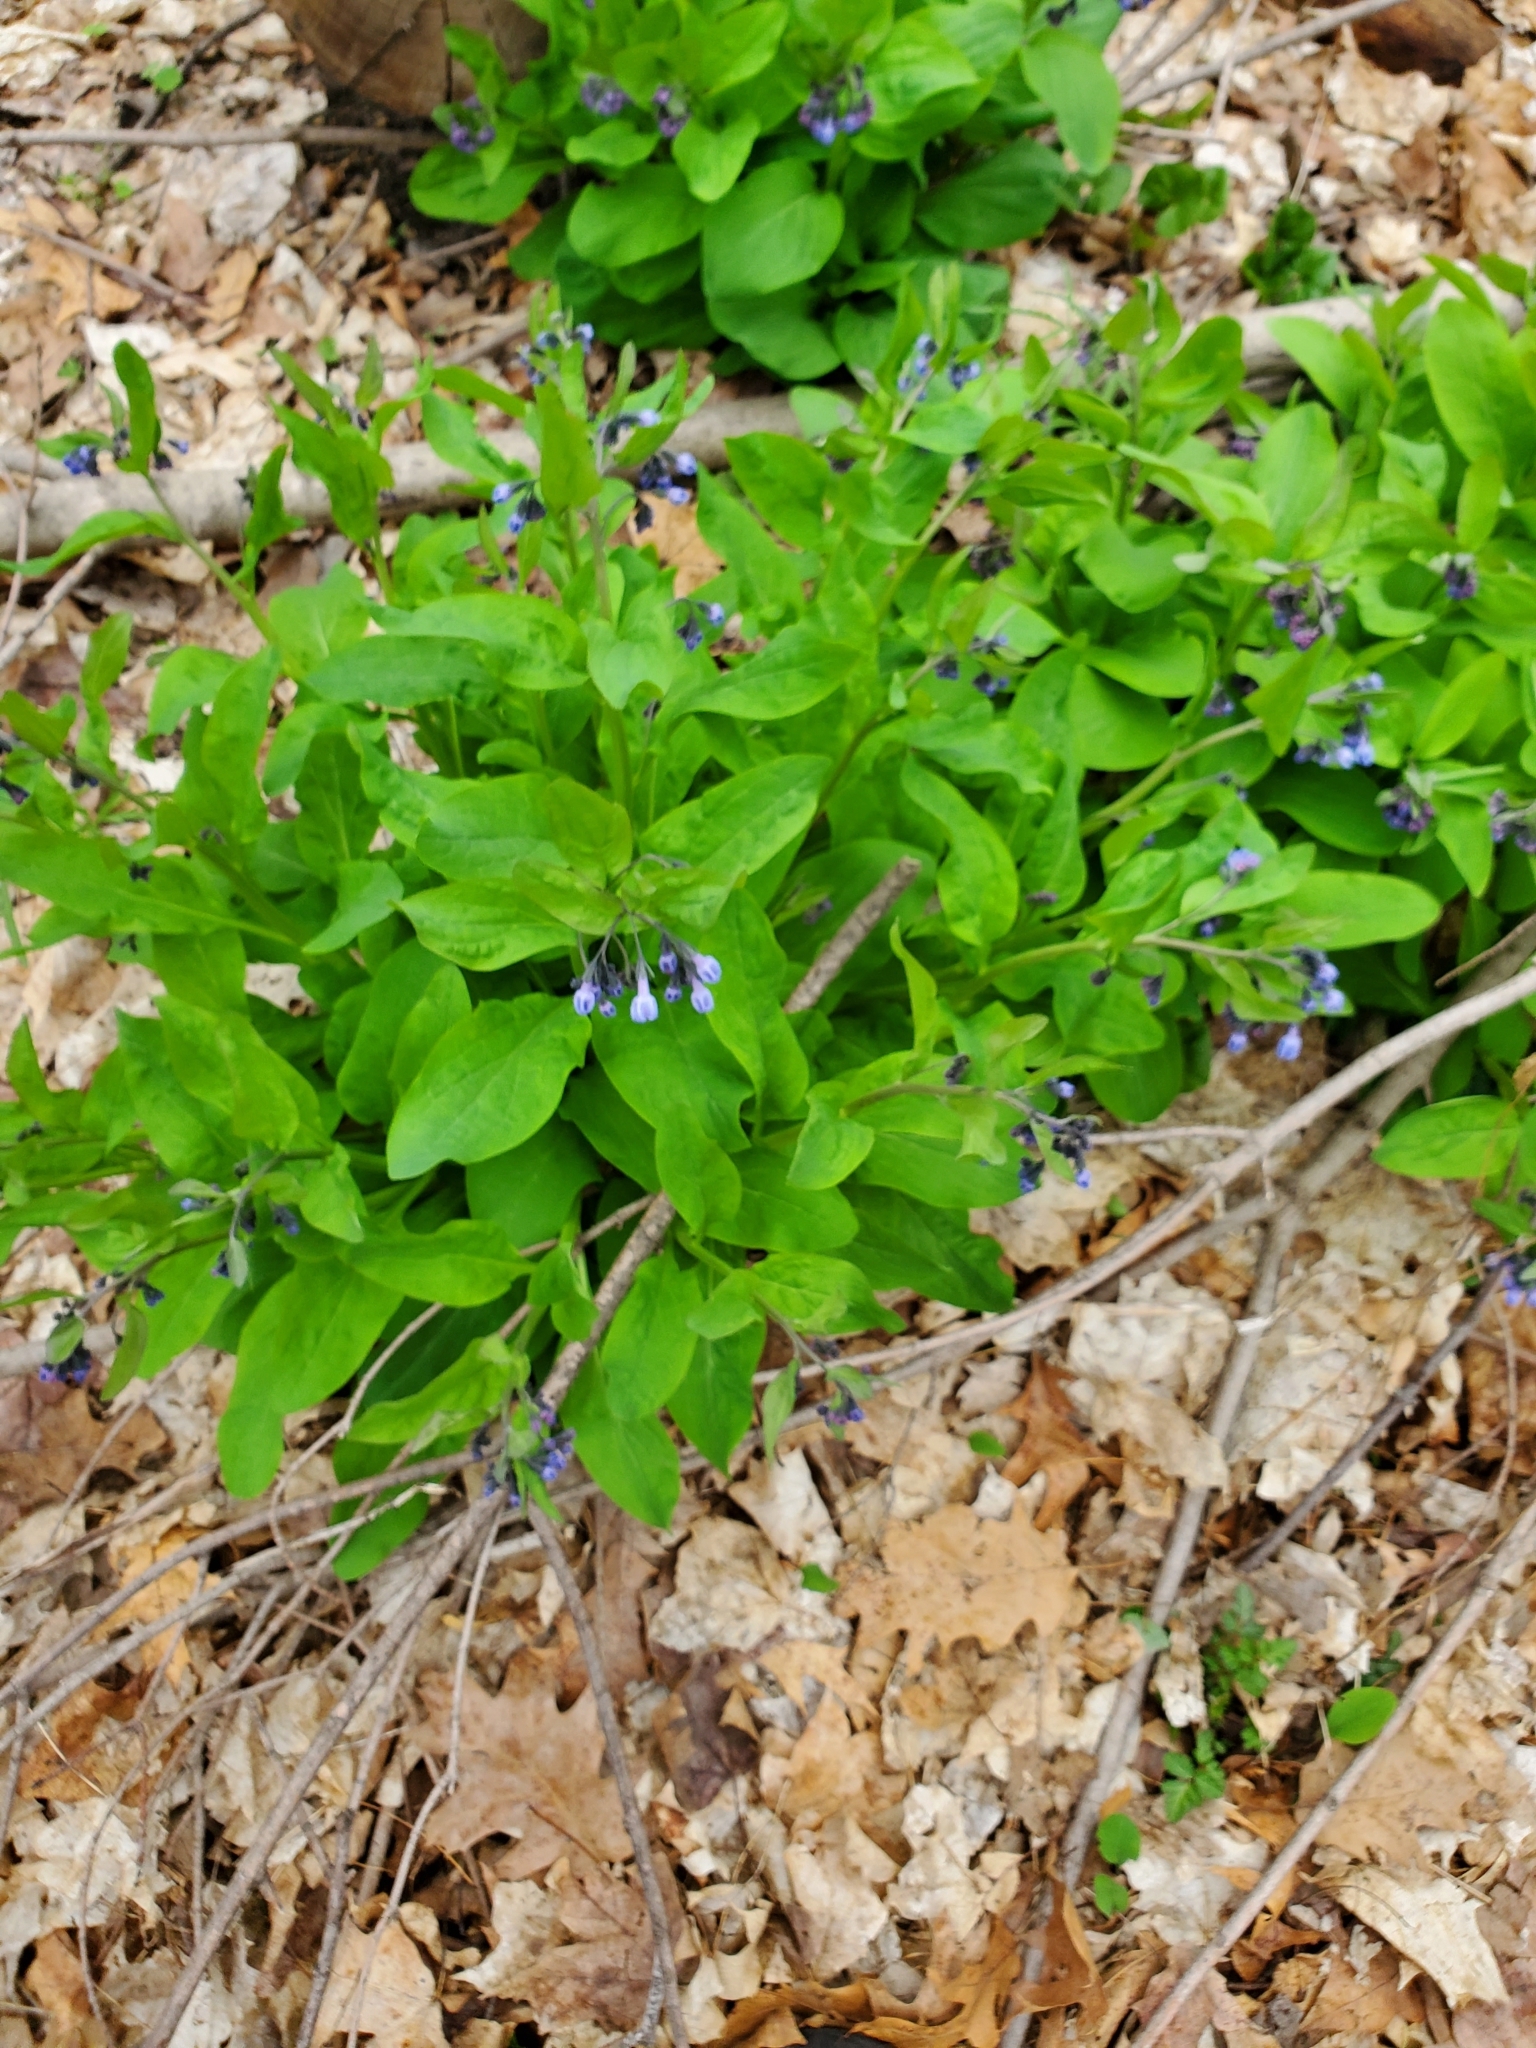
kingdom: Plantae
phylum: Tracheophyta
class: Magnoliopsida
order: Boraginales
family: Boraginaceae
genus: Mertensia
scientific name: Mertensia virginica
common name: Virginia bluebells
